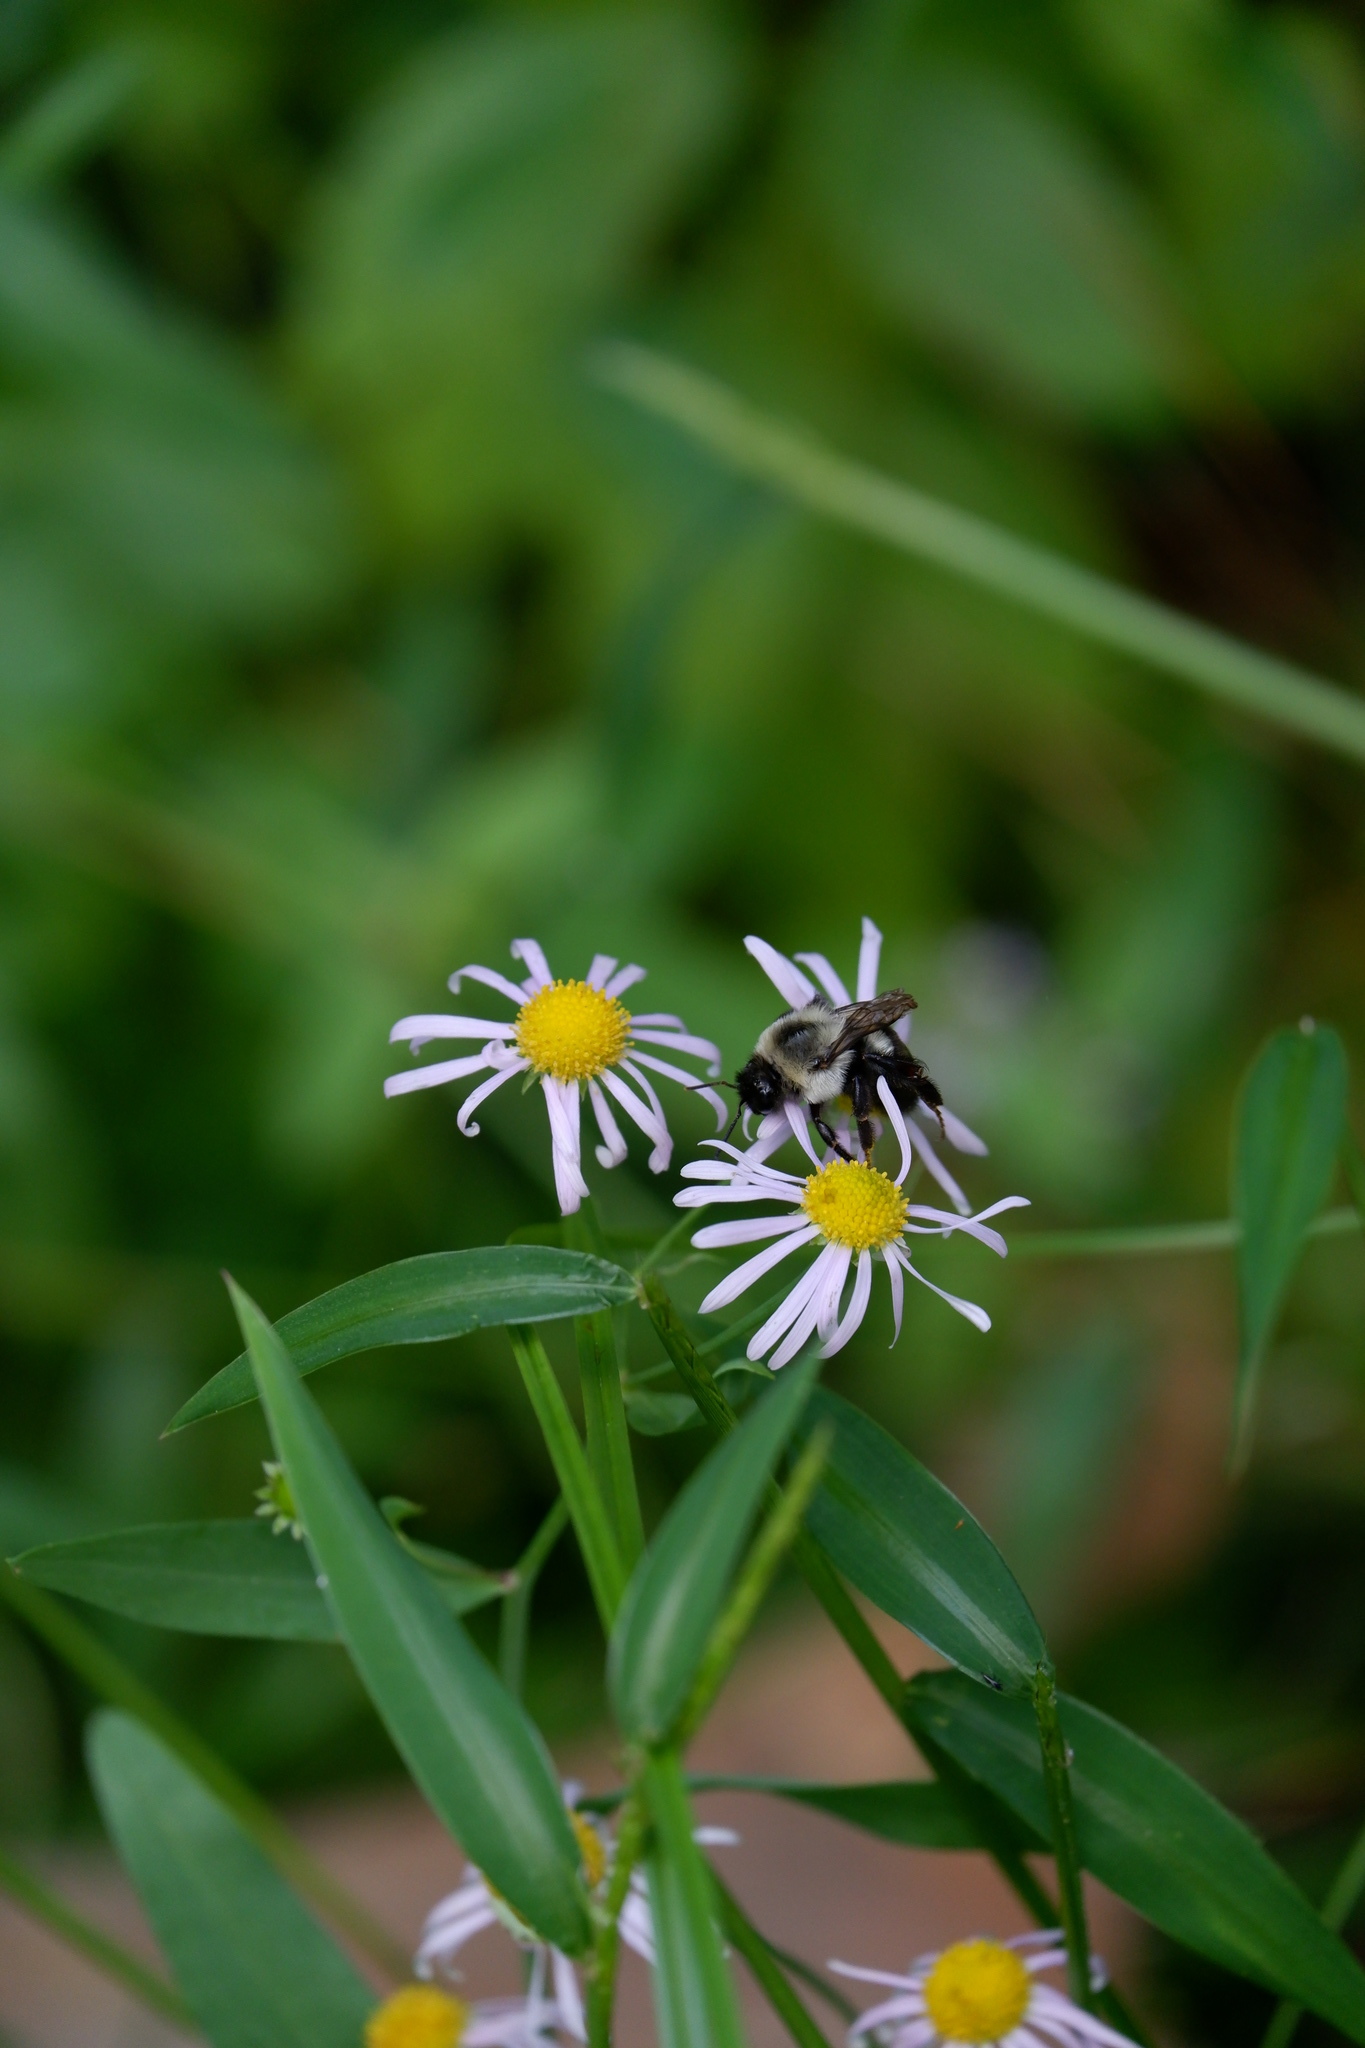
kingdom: Animalia
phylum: Arthropoda
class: Insecta
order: Hymenoptera
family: Apidae
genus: Bombus
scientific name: Bombus impatiens
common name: Common eastern bumble bee
